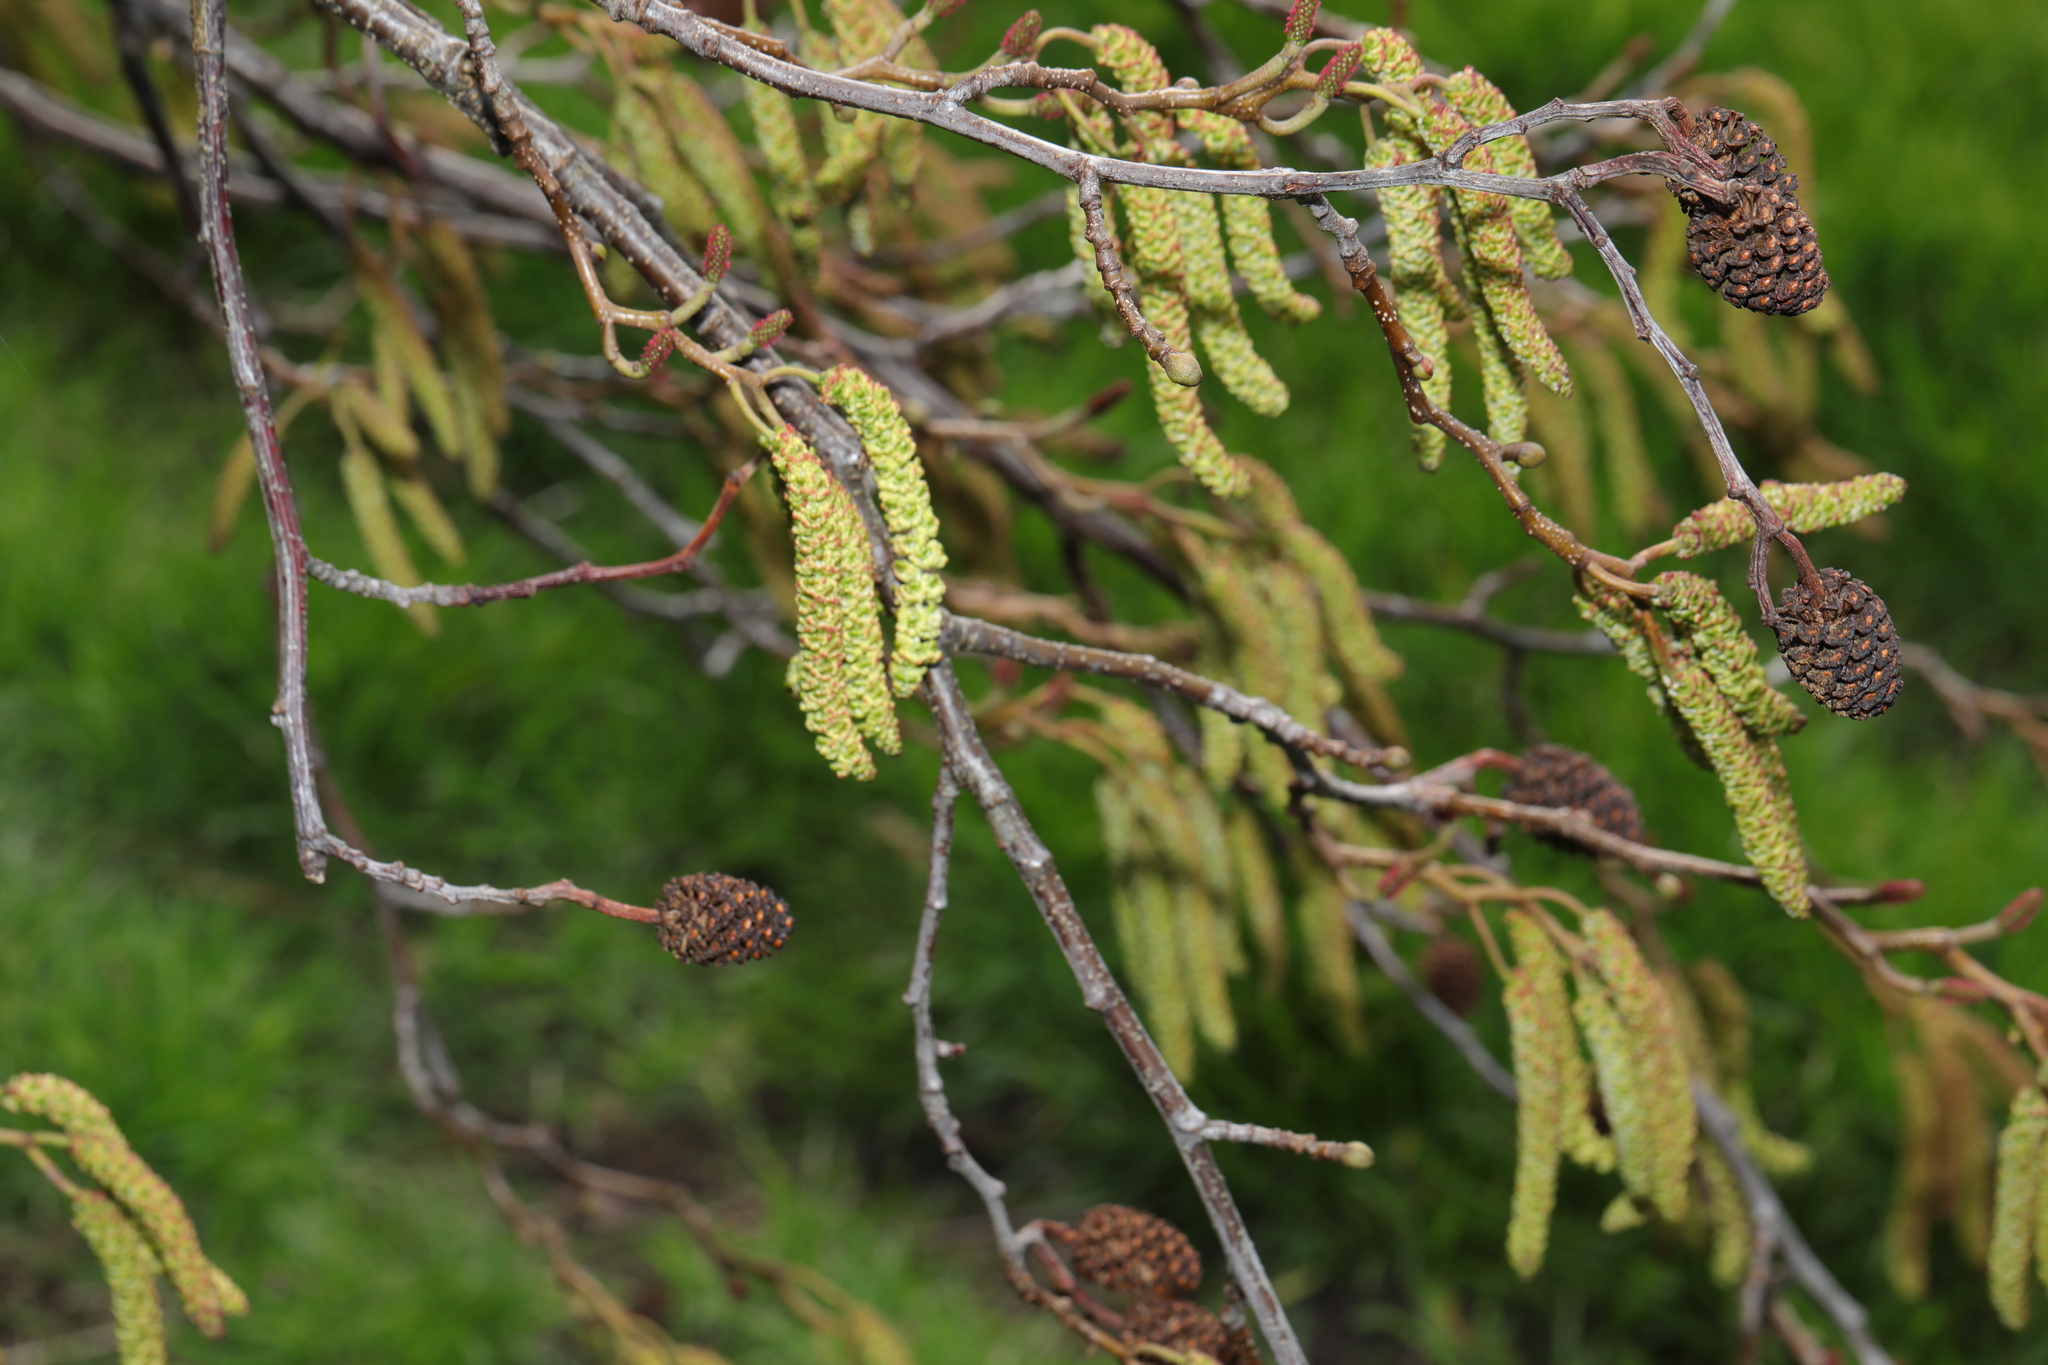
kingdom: Plantae
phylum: Tracheophyta
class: Magnoliopsida
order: Fagales
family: Betulaceae
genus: Alnus
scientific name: Alnus cordata
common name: Italian alder
